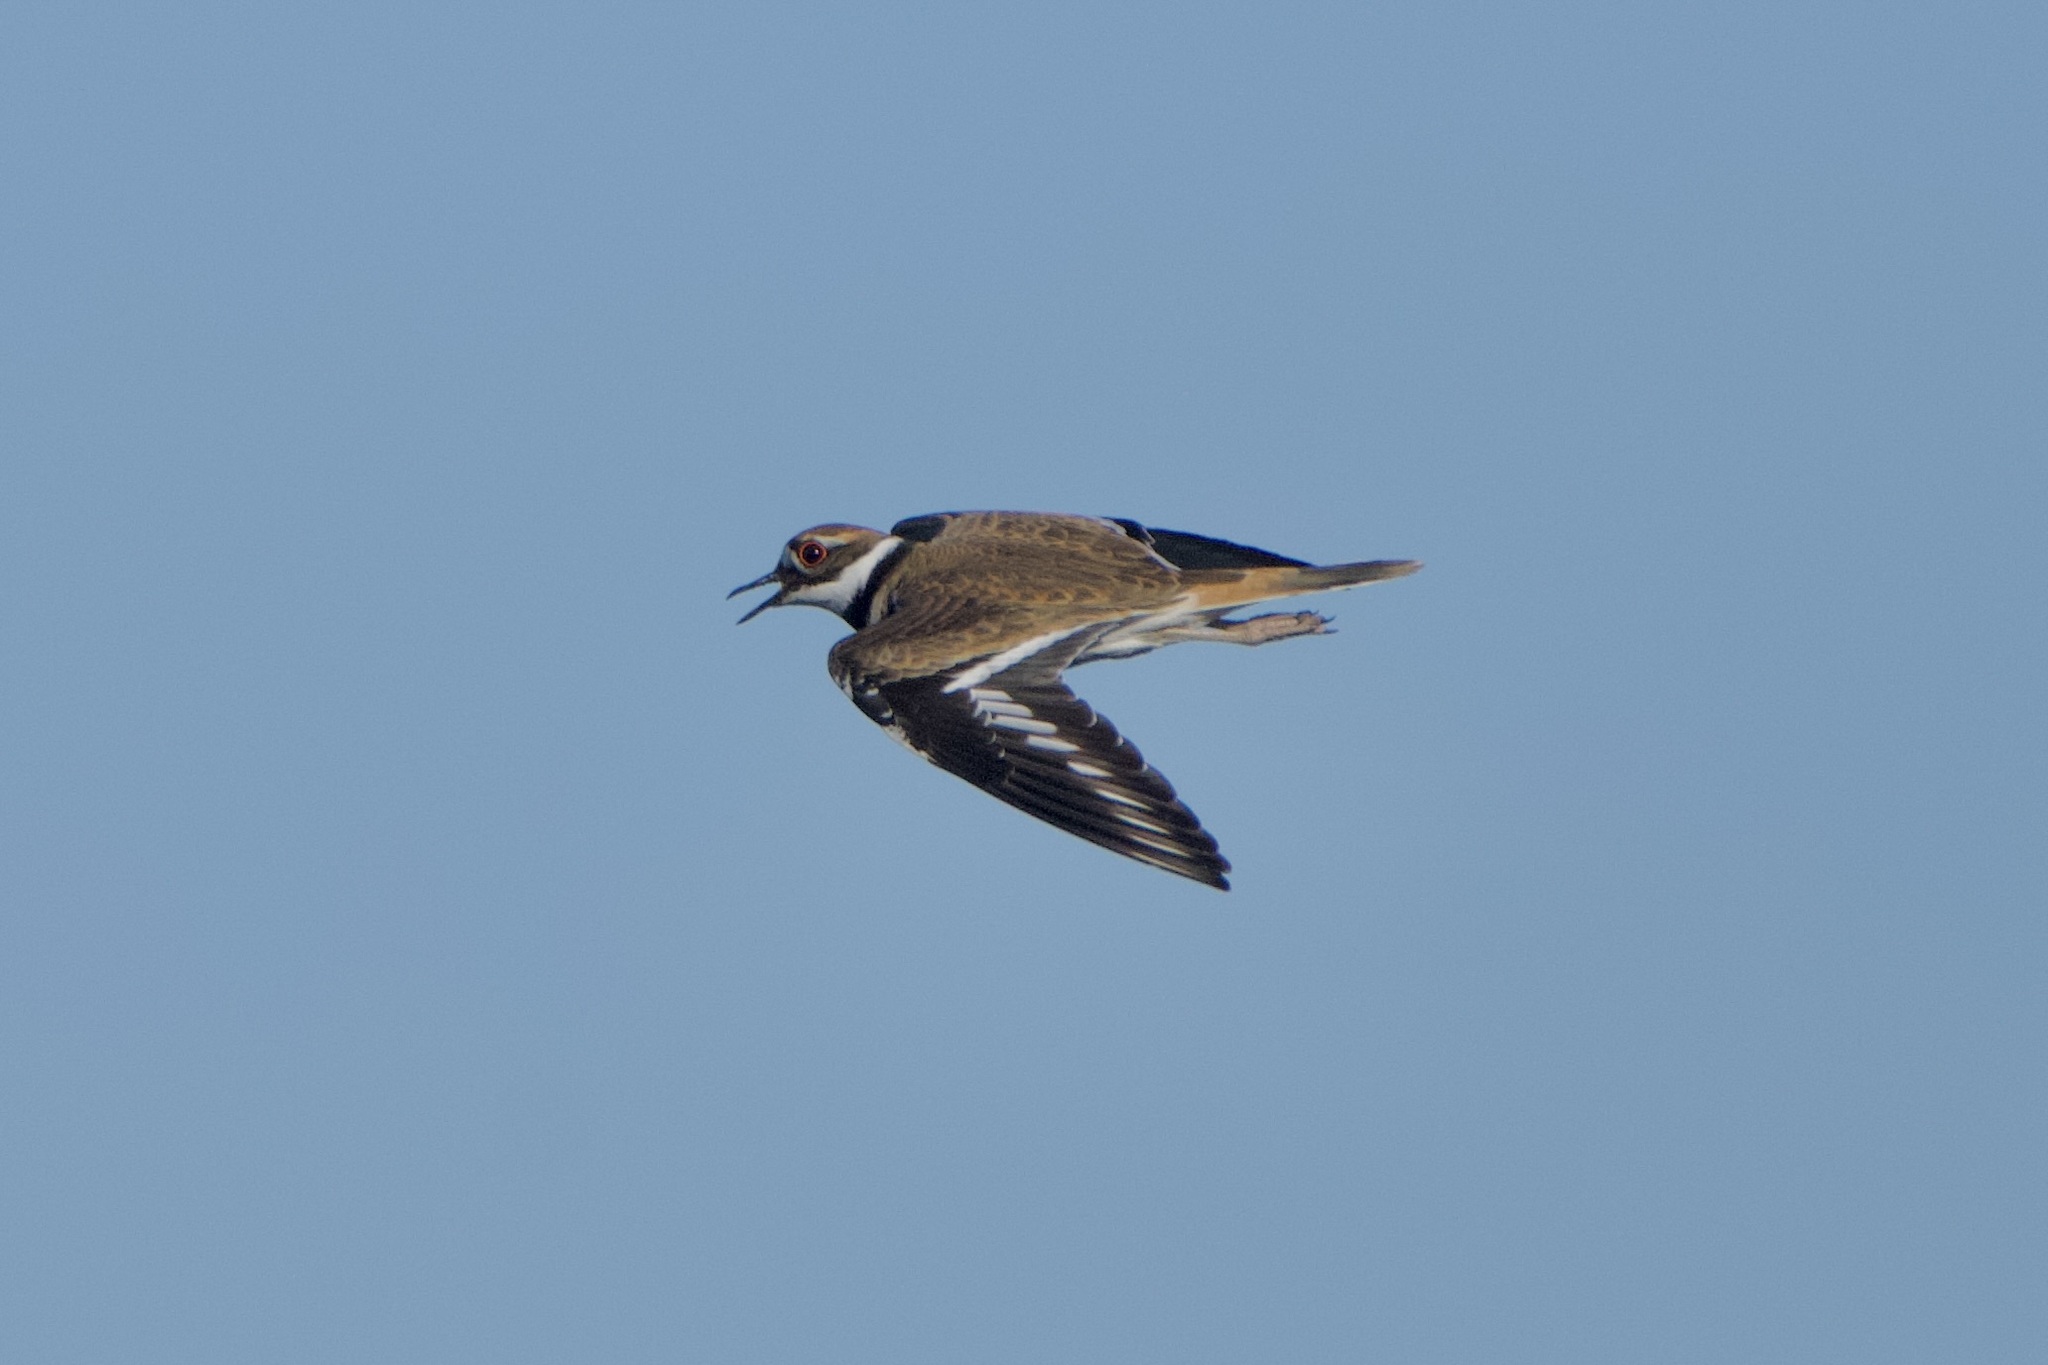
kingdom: Animalia
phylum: Chordata
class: Aves
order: Charadriiformes
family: Charadriidae
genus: Charadrius
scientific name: Charadrius vociferus
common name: Killdeer
